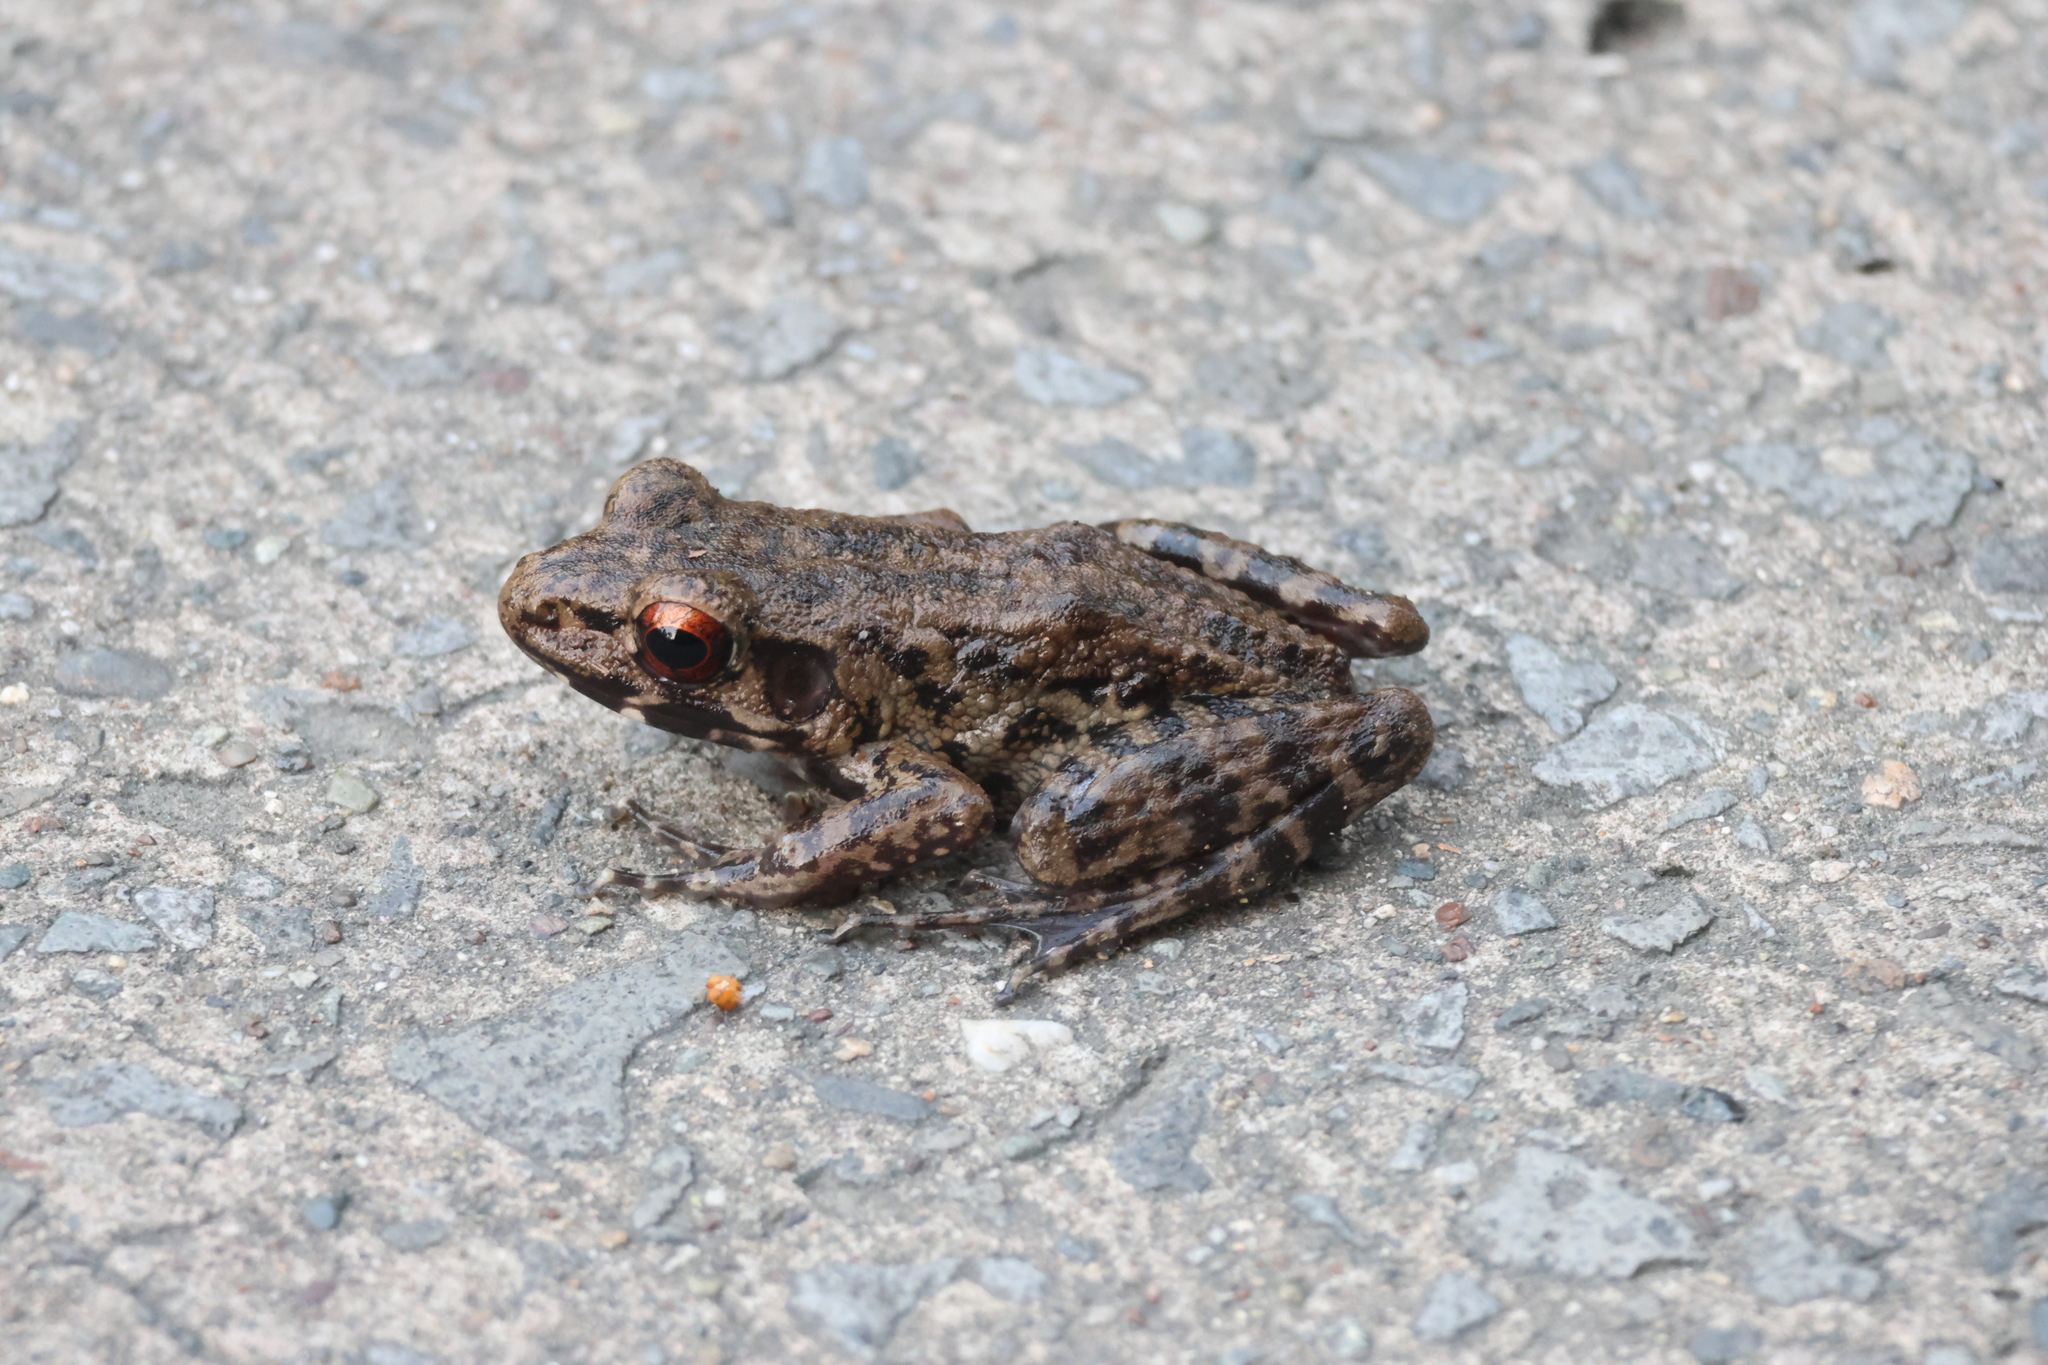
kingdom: Animalia
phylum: Chordata
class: Amphibia
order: Anura
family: Ranidae
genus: Pulchrana
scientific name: Pulchrana glandulosa
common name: Rough-sided frog
